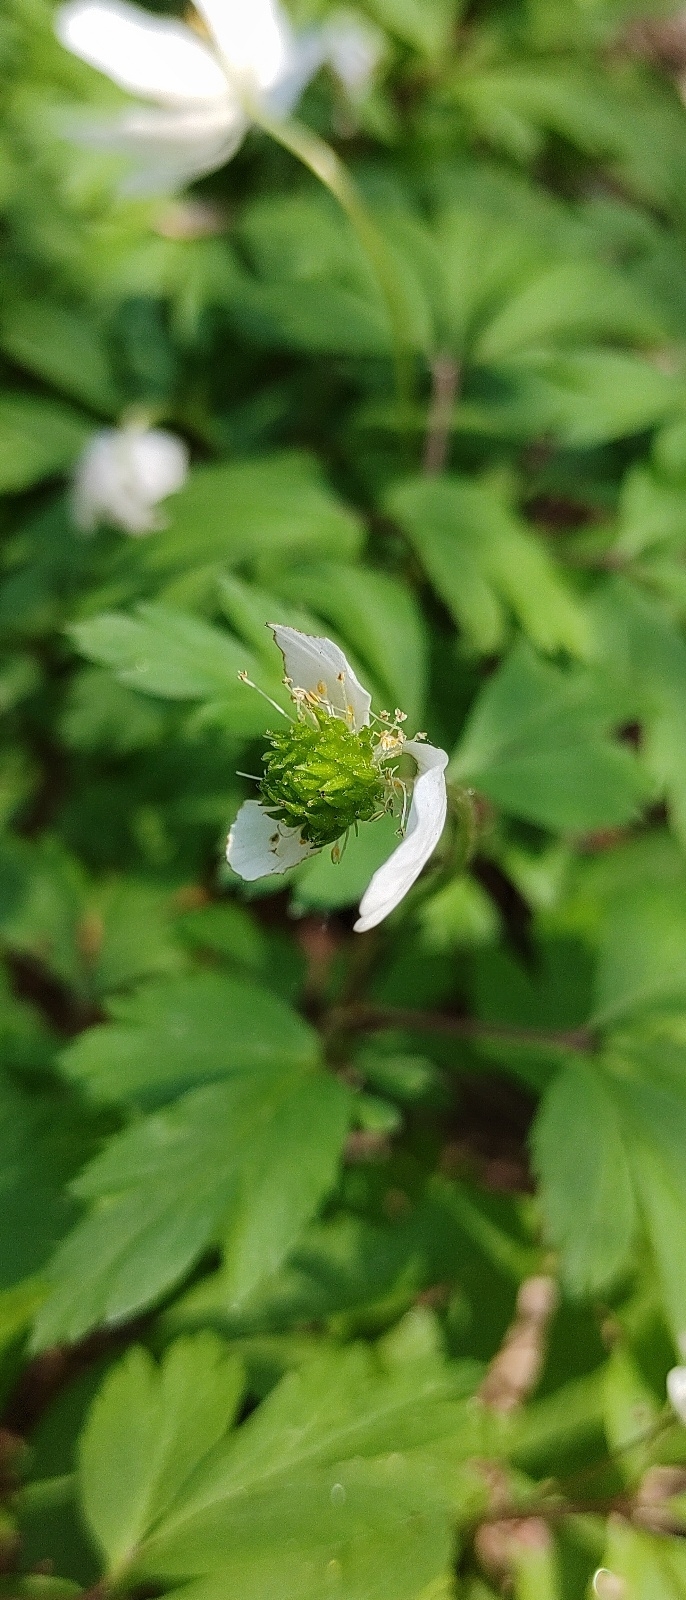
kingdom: Plantae
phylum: Tracheophyta
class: Magnoliopsida
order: Ranunculales
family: Ranunculaceae
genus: Anemone
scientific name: Anemone nemorosa
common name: Wood anemone
